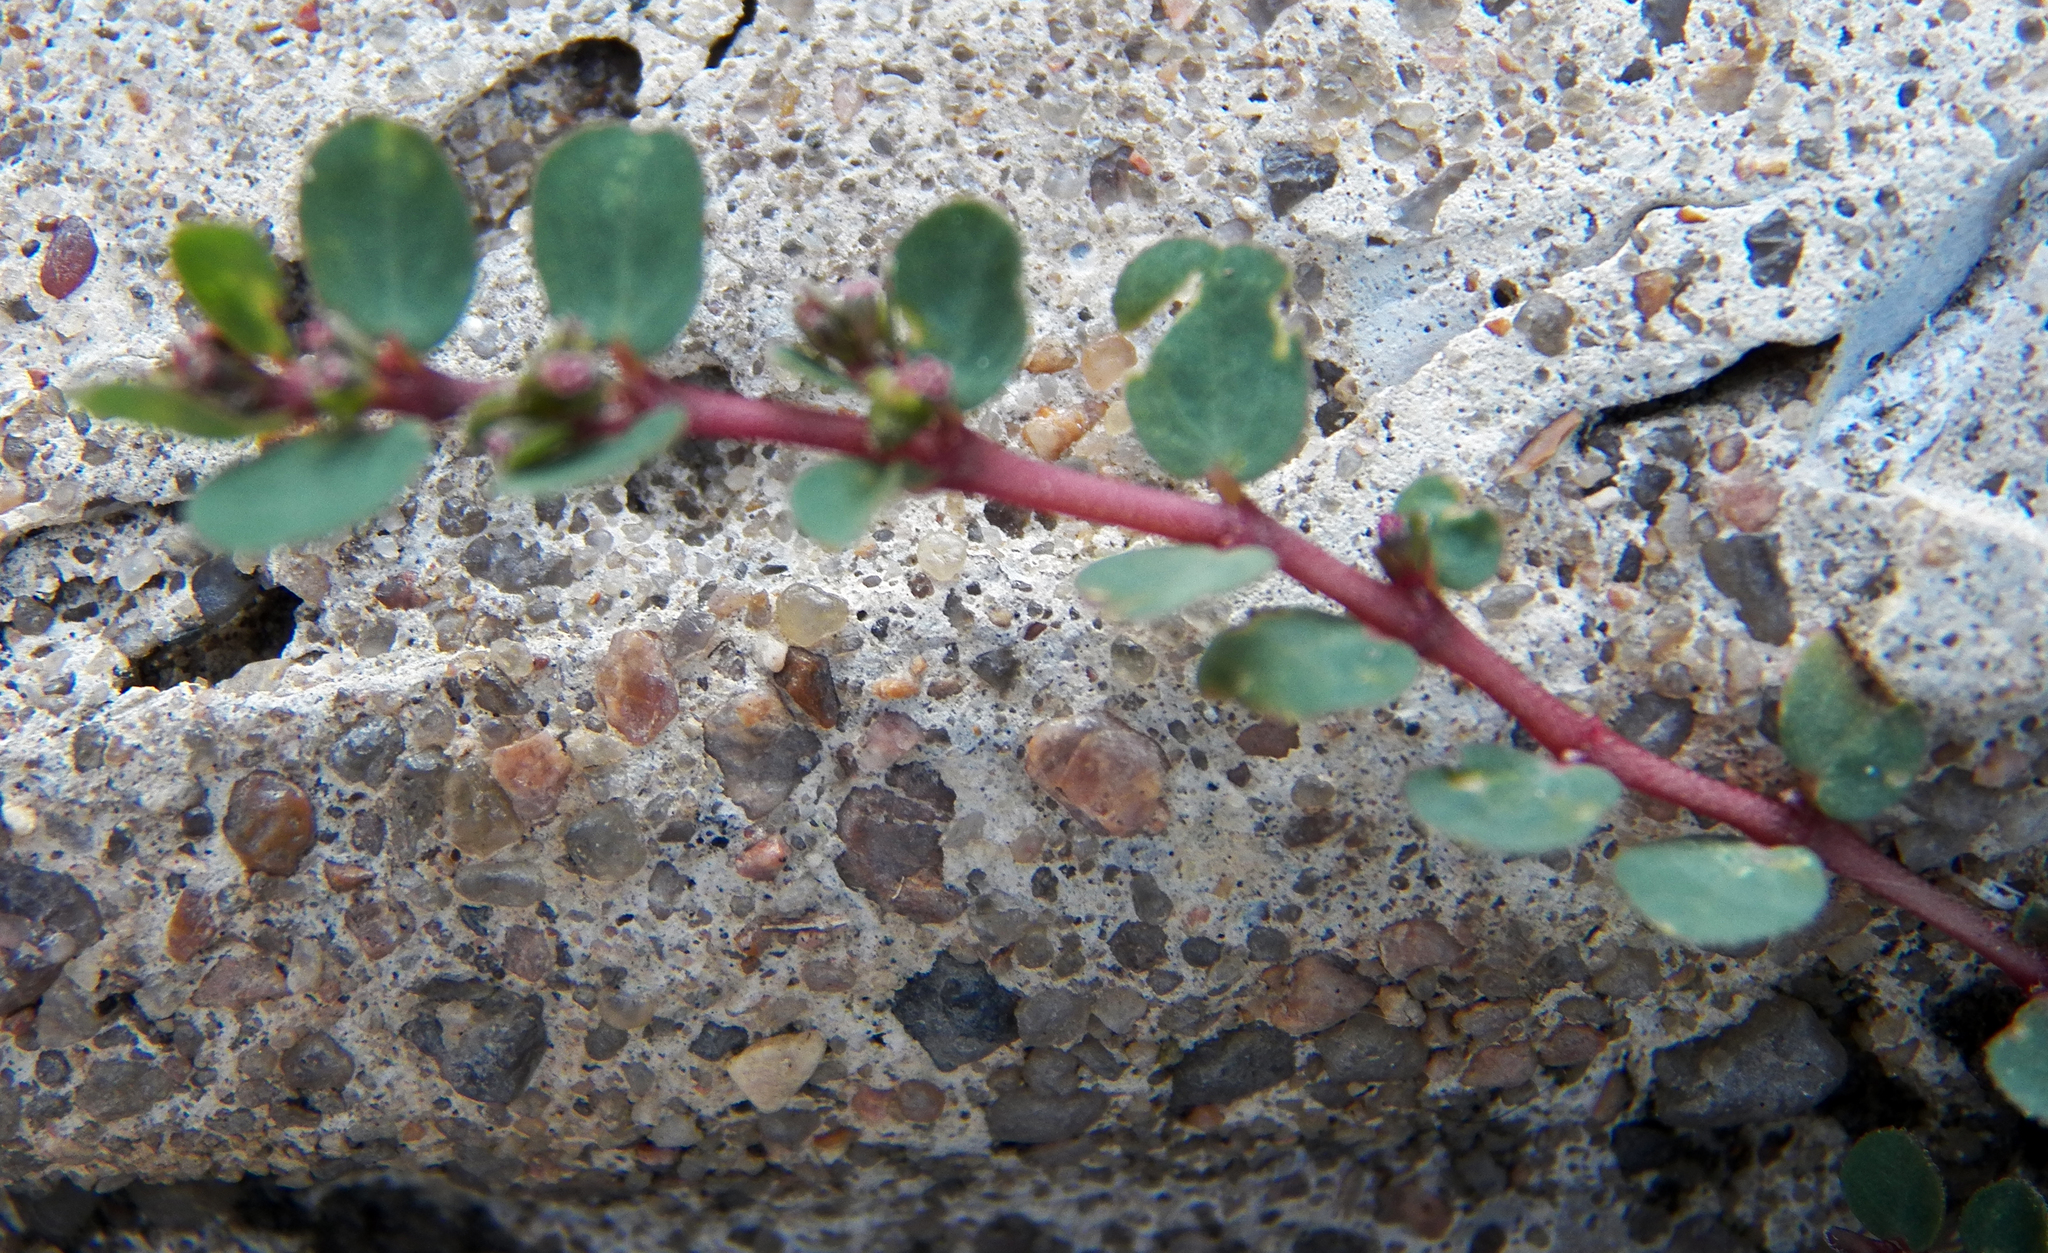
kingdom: Plantae
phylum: Tracheophyta
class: Magnoliopsida
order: Malpighiales
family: Euphorbiaceae
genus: Euphorbia
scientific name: Euphorbia prostrata
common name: Prostrate sandmat
